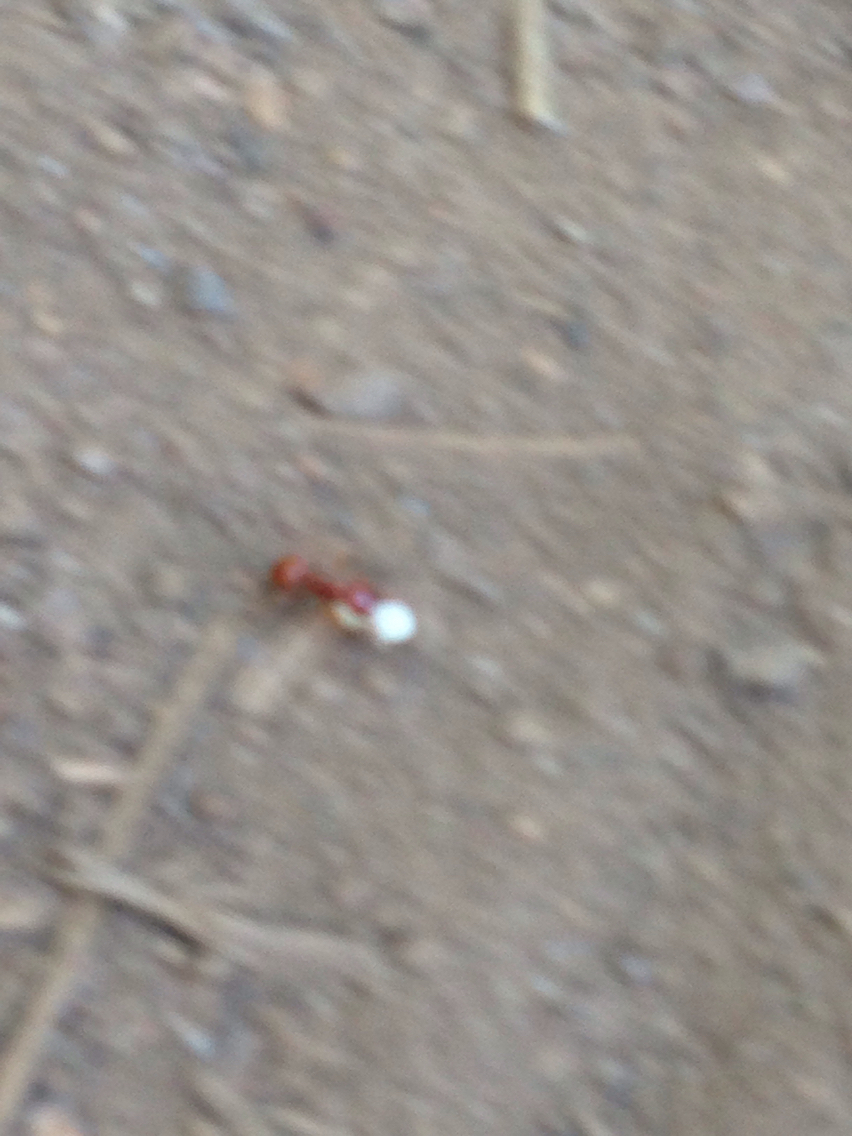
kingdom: Animalia
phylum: Arthropoda
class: Insecta
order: Hymenoptera
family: Formicidae
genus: Polyergus
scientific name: Polyergus mexicanus
